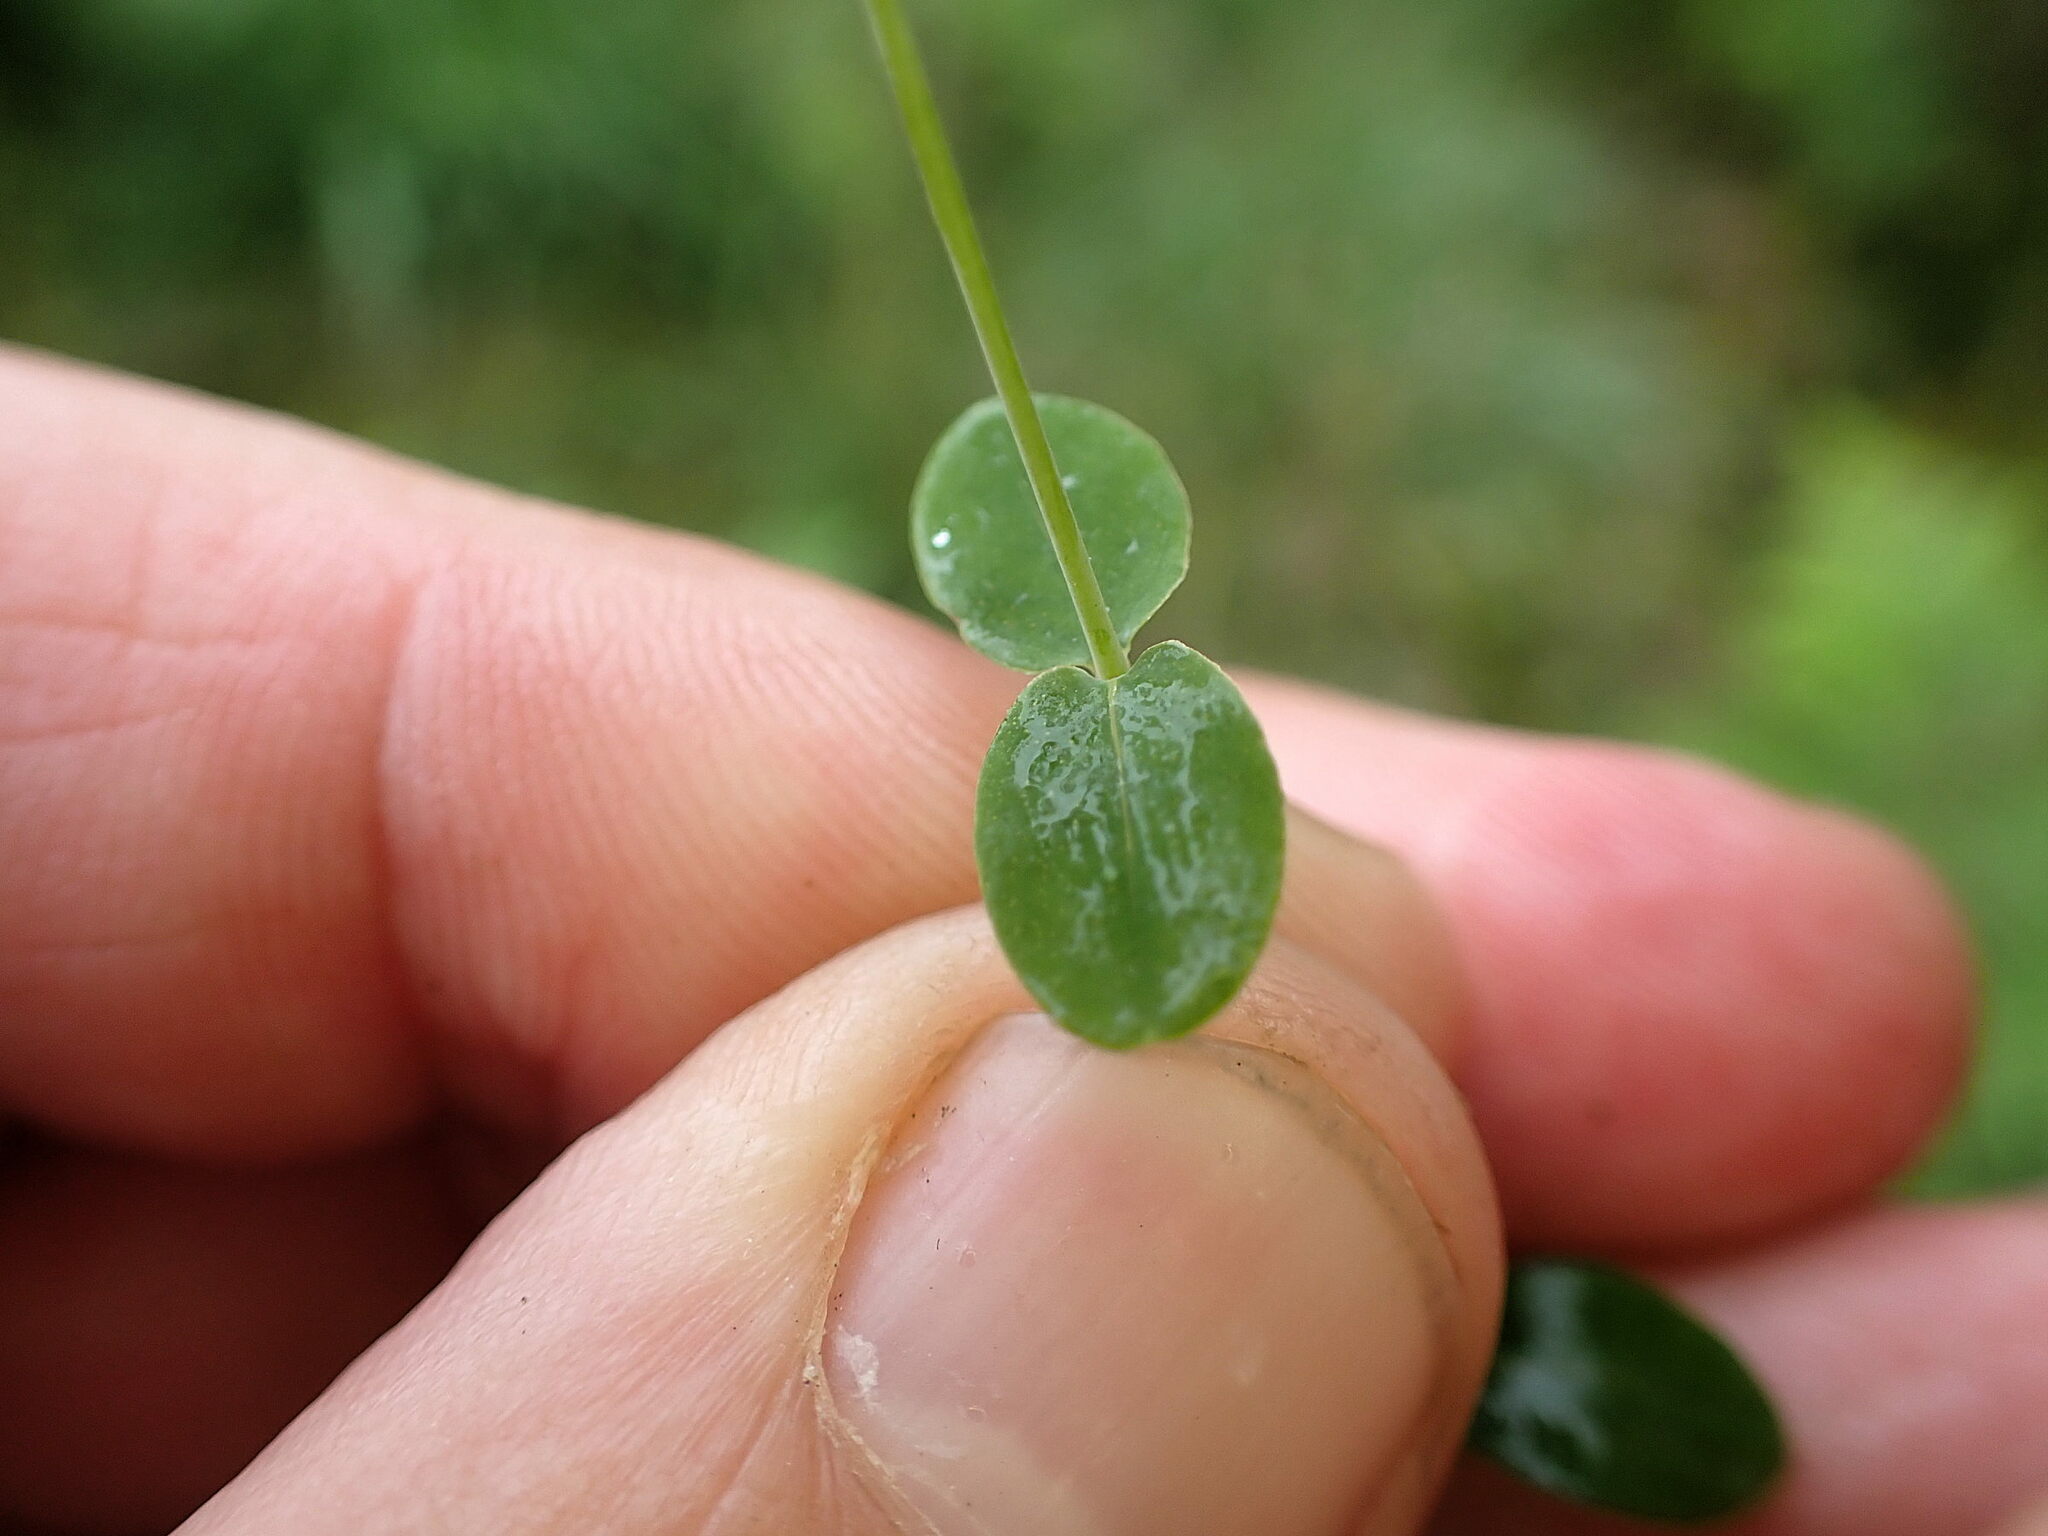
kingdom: Plantae
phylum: Tracheophyta
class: Magnoliopsida
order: Malpighiales
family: Hypericaceae
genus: Hypericum
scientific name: Hypericum pulchrum
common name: Slender st. john's-wort
